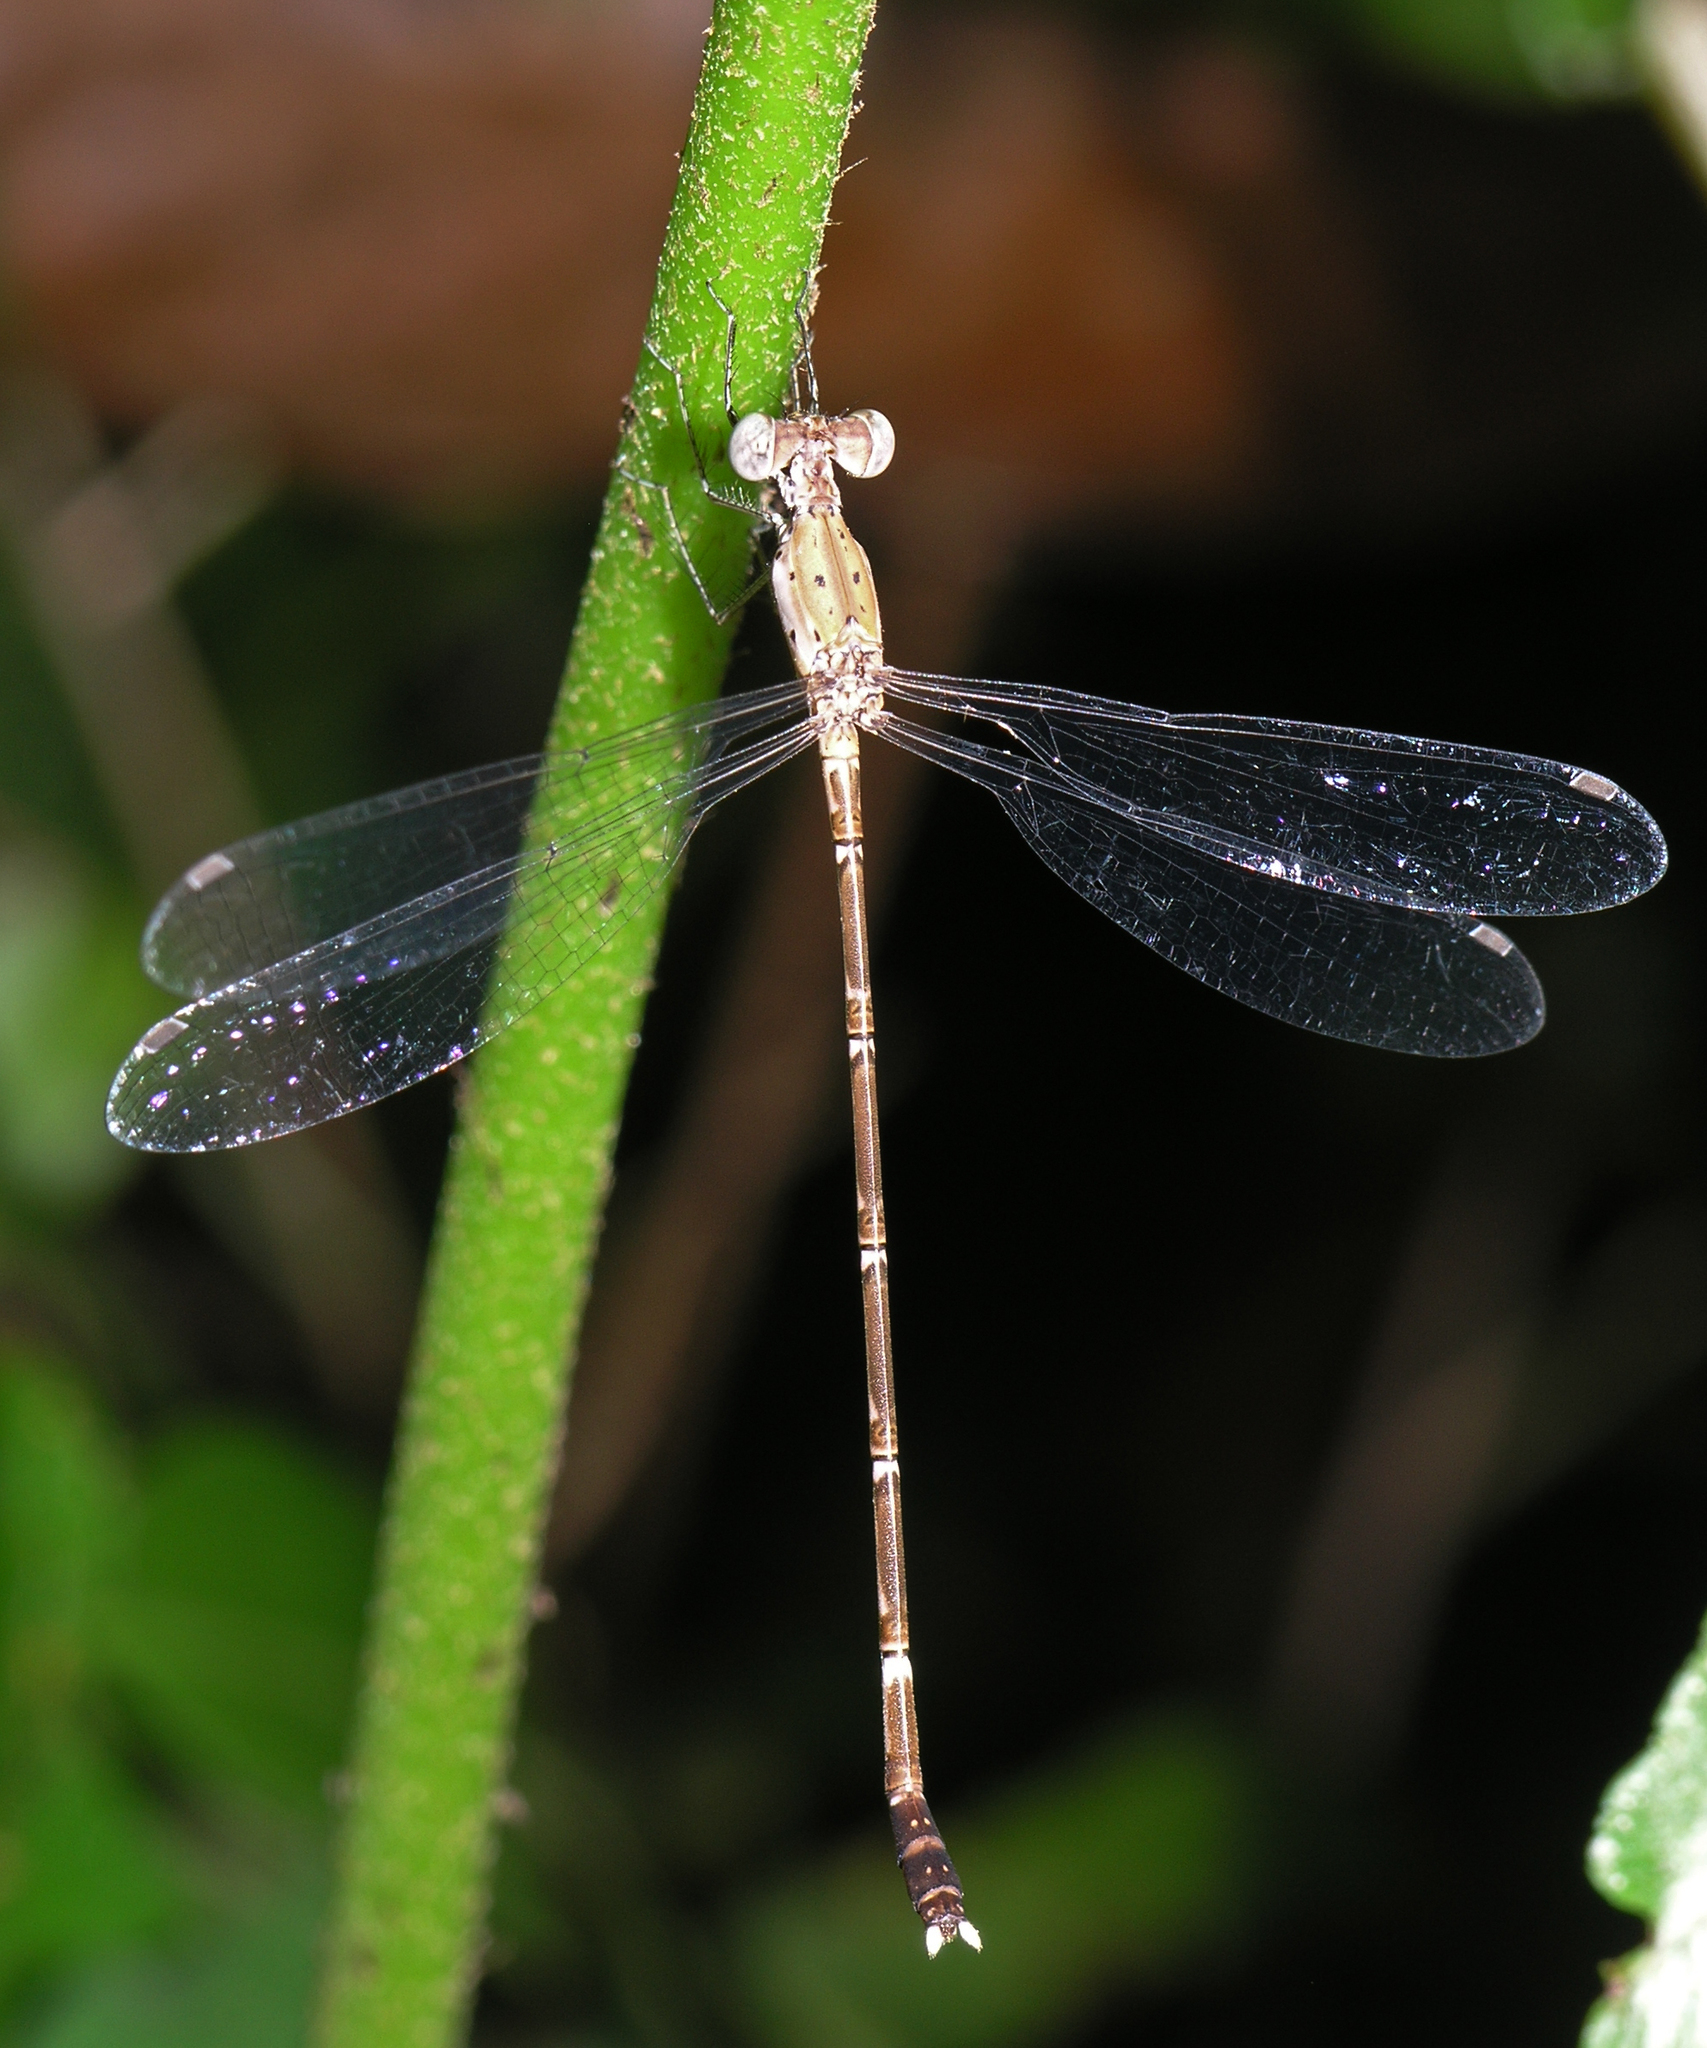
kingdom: Animalia
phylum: Arthropoda
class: Insecta
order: Odonata
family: Lestidae
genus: Platylestes
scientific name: Platylestes platystylus
